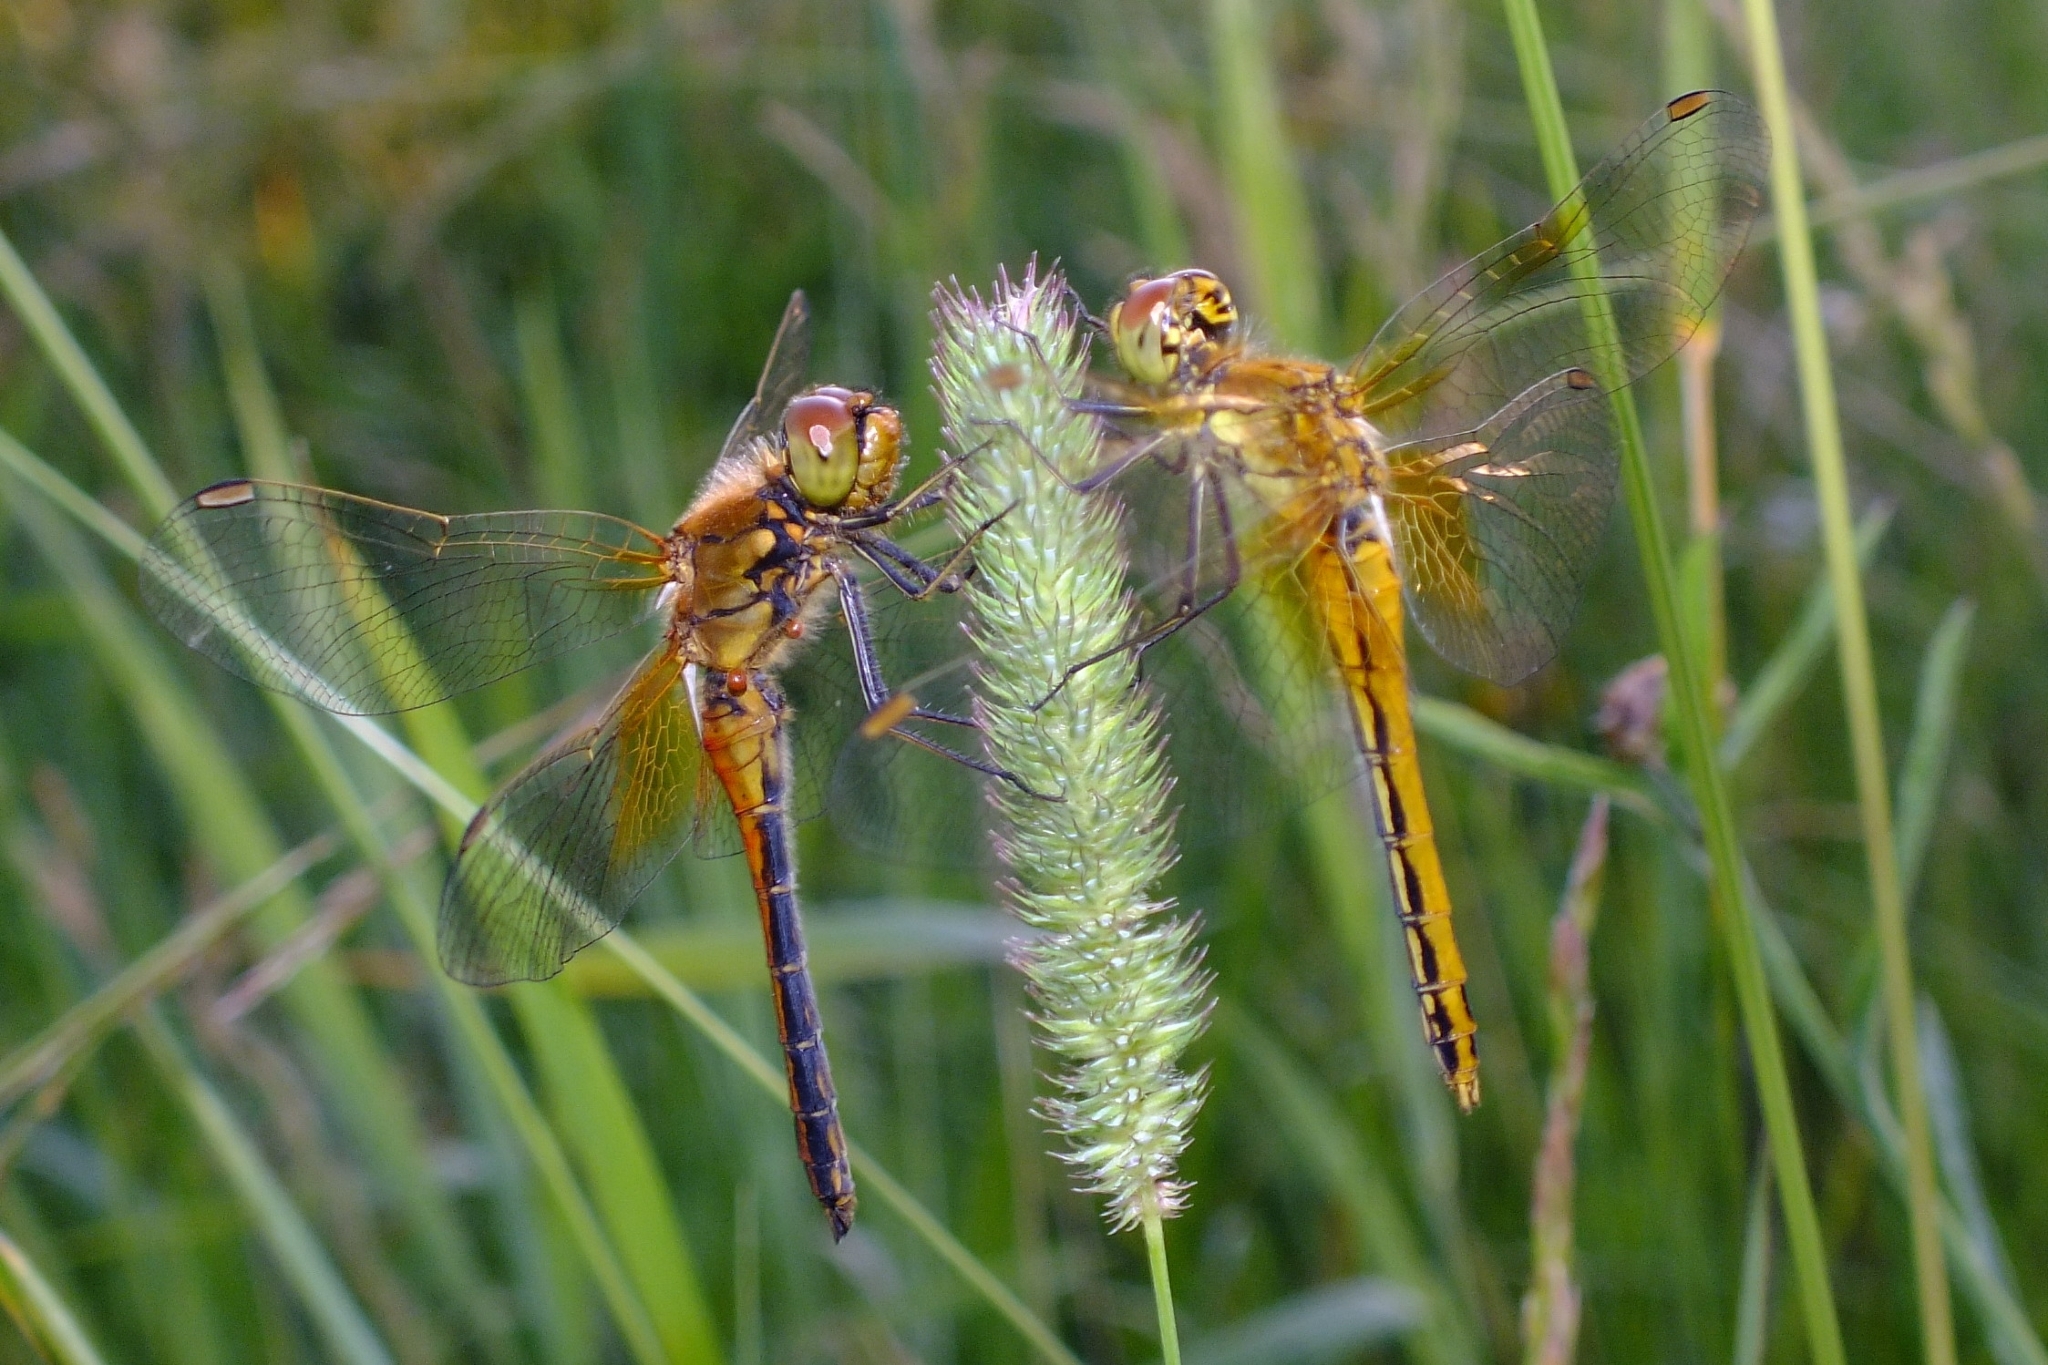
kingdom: Animalia
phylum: Arthropoda
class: Insecta
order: Odonata
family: Libellulidae
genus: Sympetrum
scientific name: Sympetrum flaveolum
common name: Yellow-winged darter
